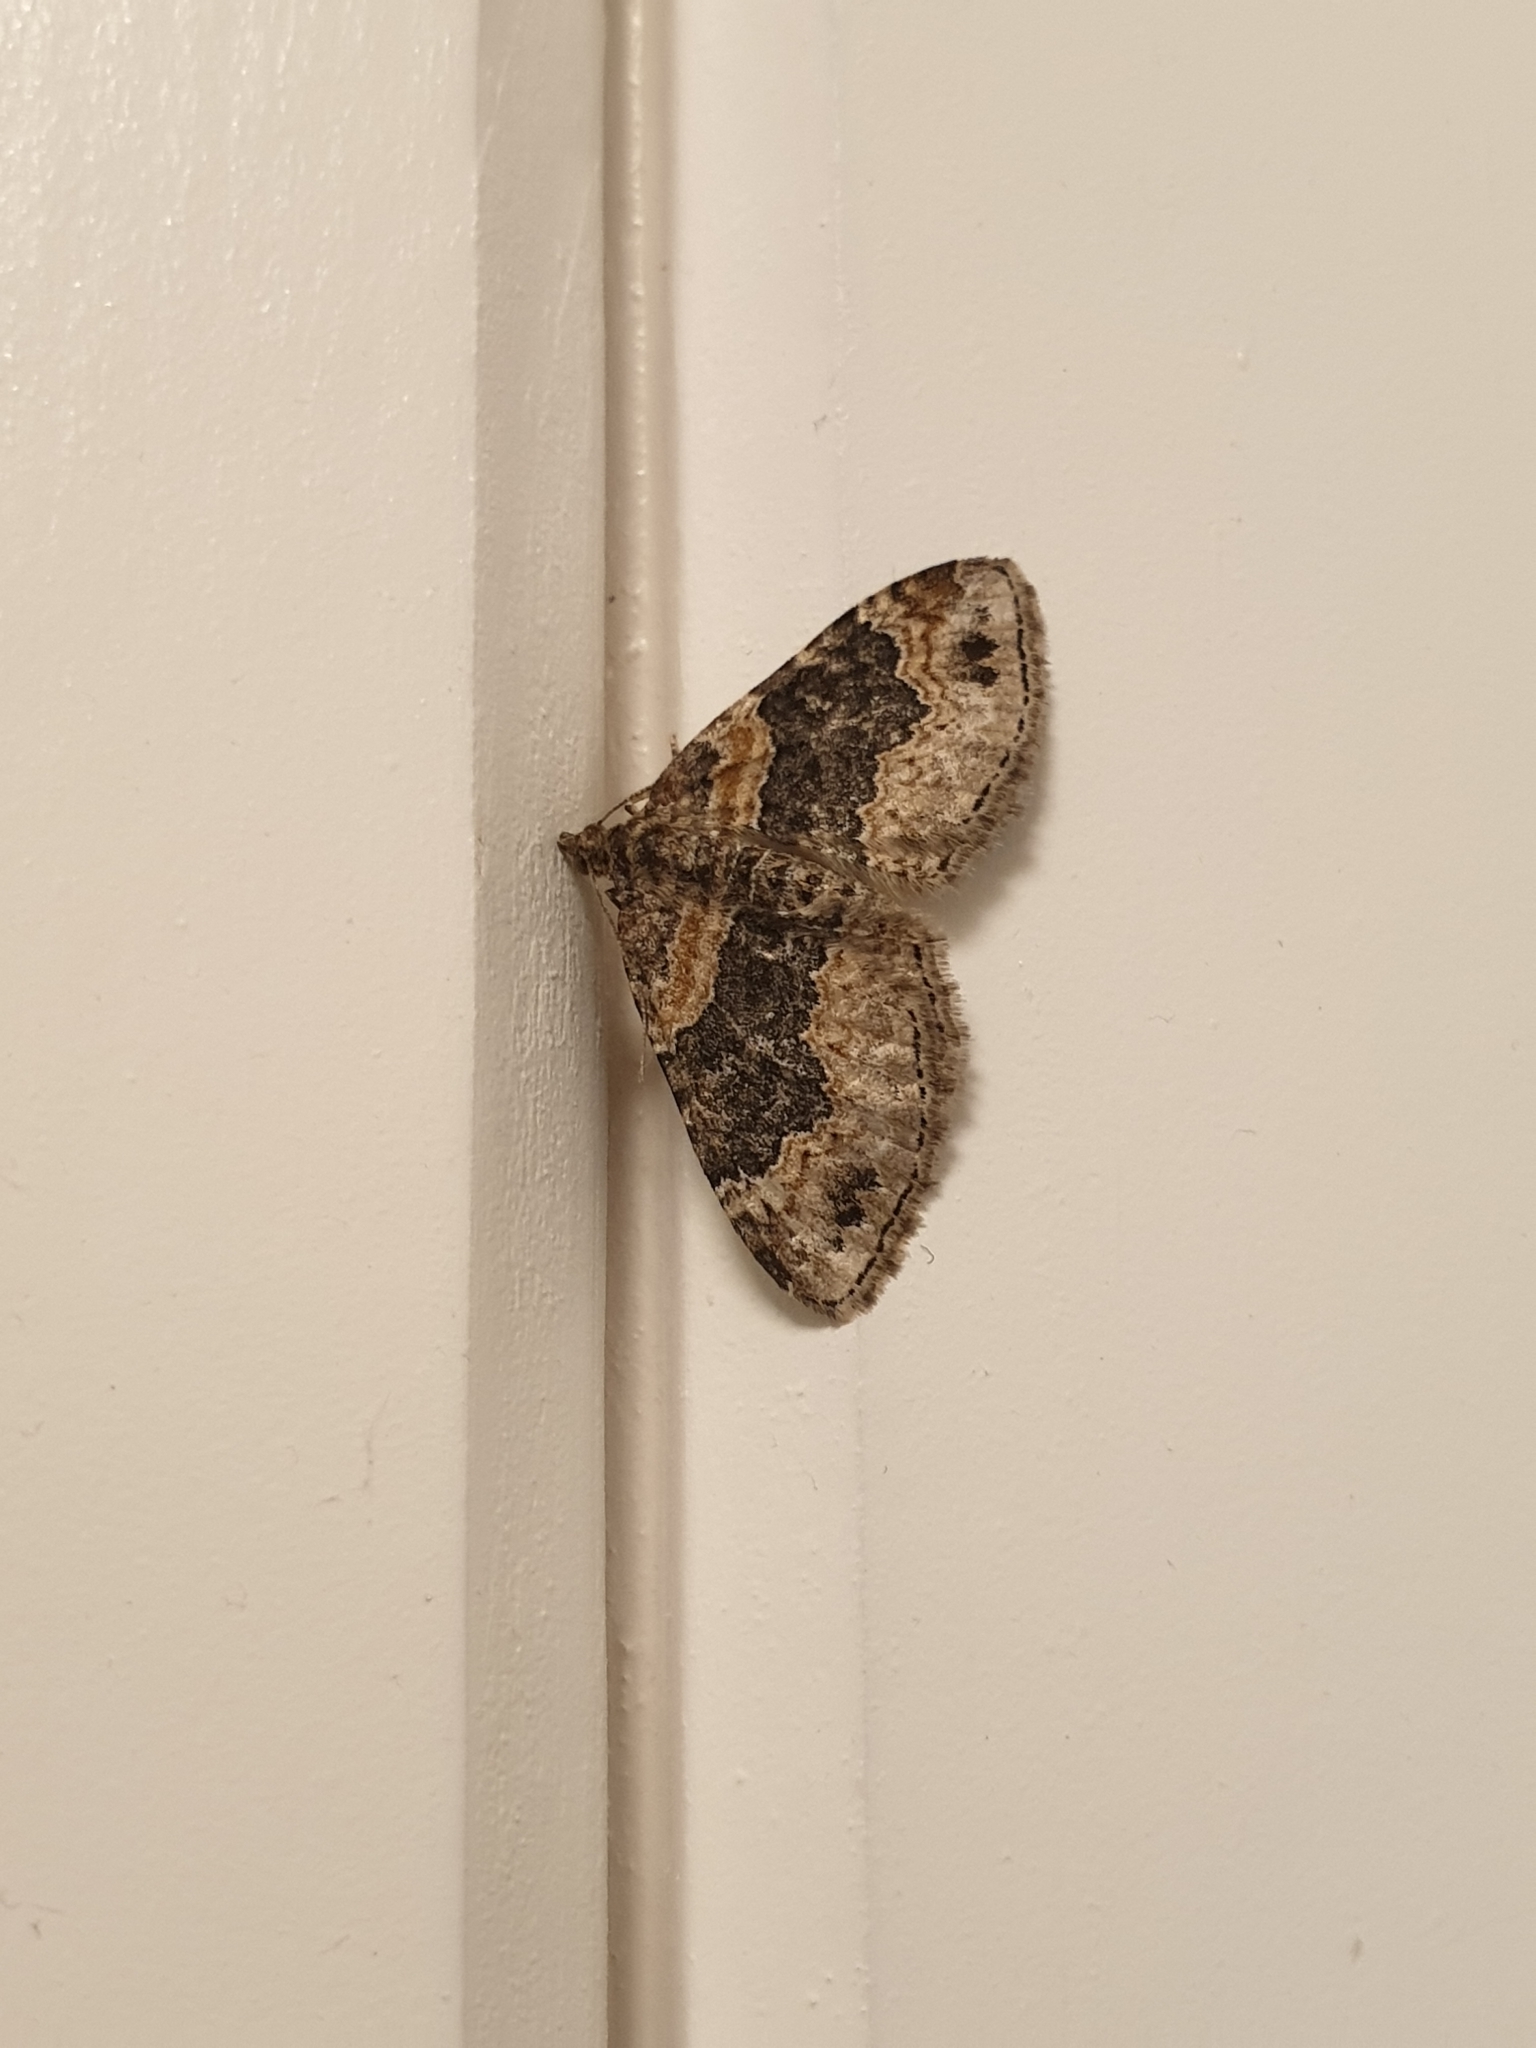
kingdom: Animalia
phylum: Arthropoda
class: Insecta
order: Lepidoptera
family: Geometridae
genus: Xanthorhoe
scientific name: Xanthorhoe ferrugata
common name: Dark-barred twin-spot carpet
